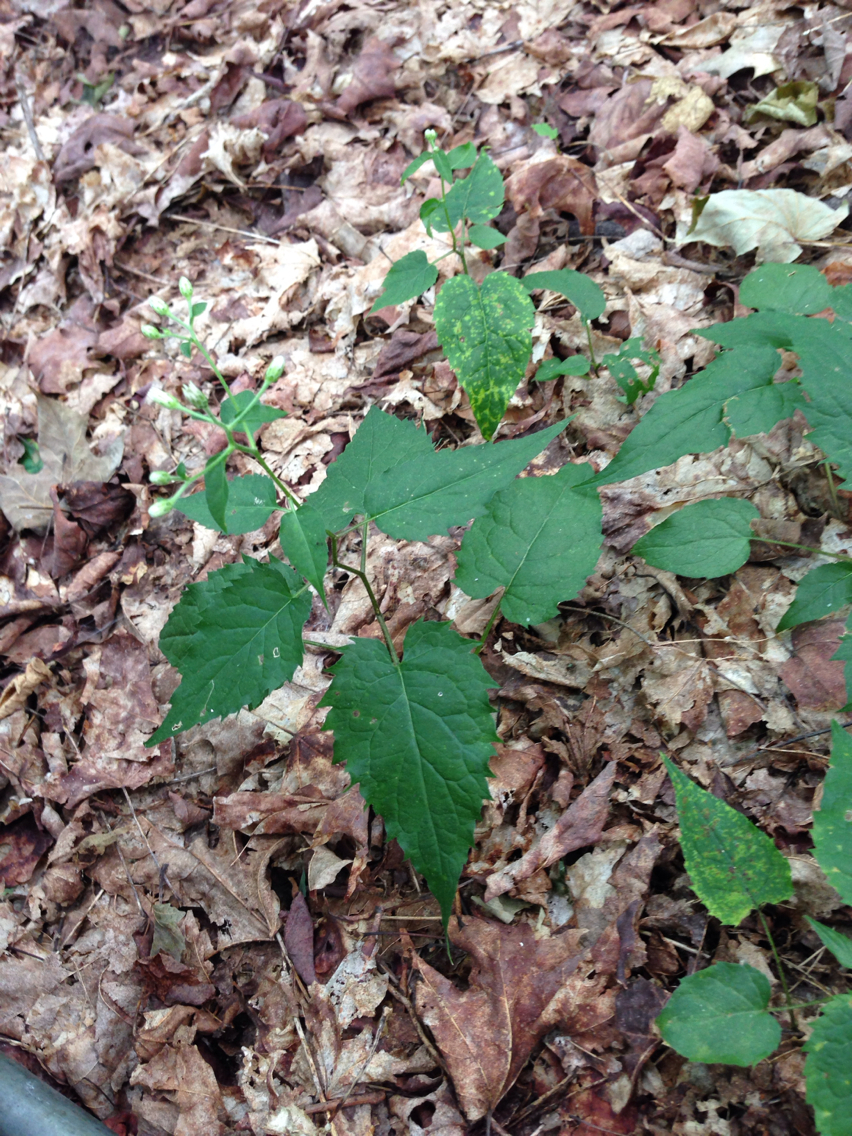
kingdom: Plantae
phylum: Tracheophyta
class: Magnoliopsida
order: Asterales
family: Asteraceae
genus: Symphyotrichum
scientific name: Symphyotrichum cordifolium
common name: Beeweed
